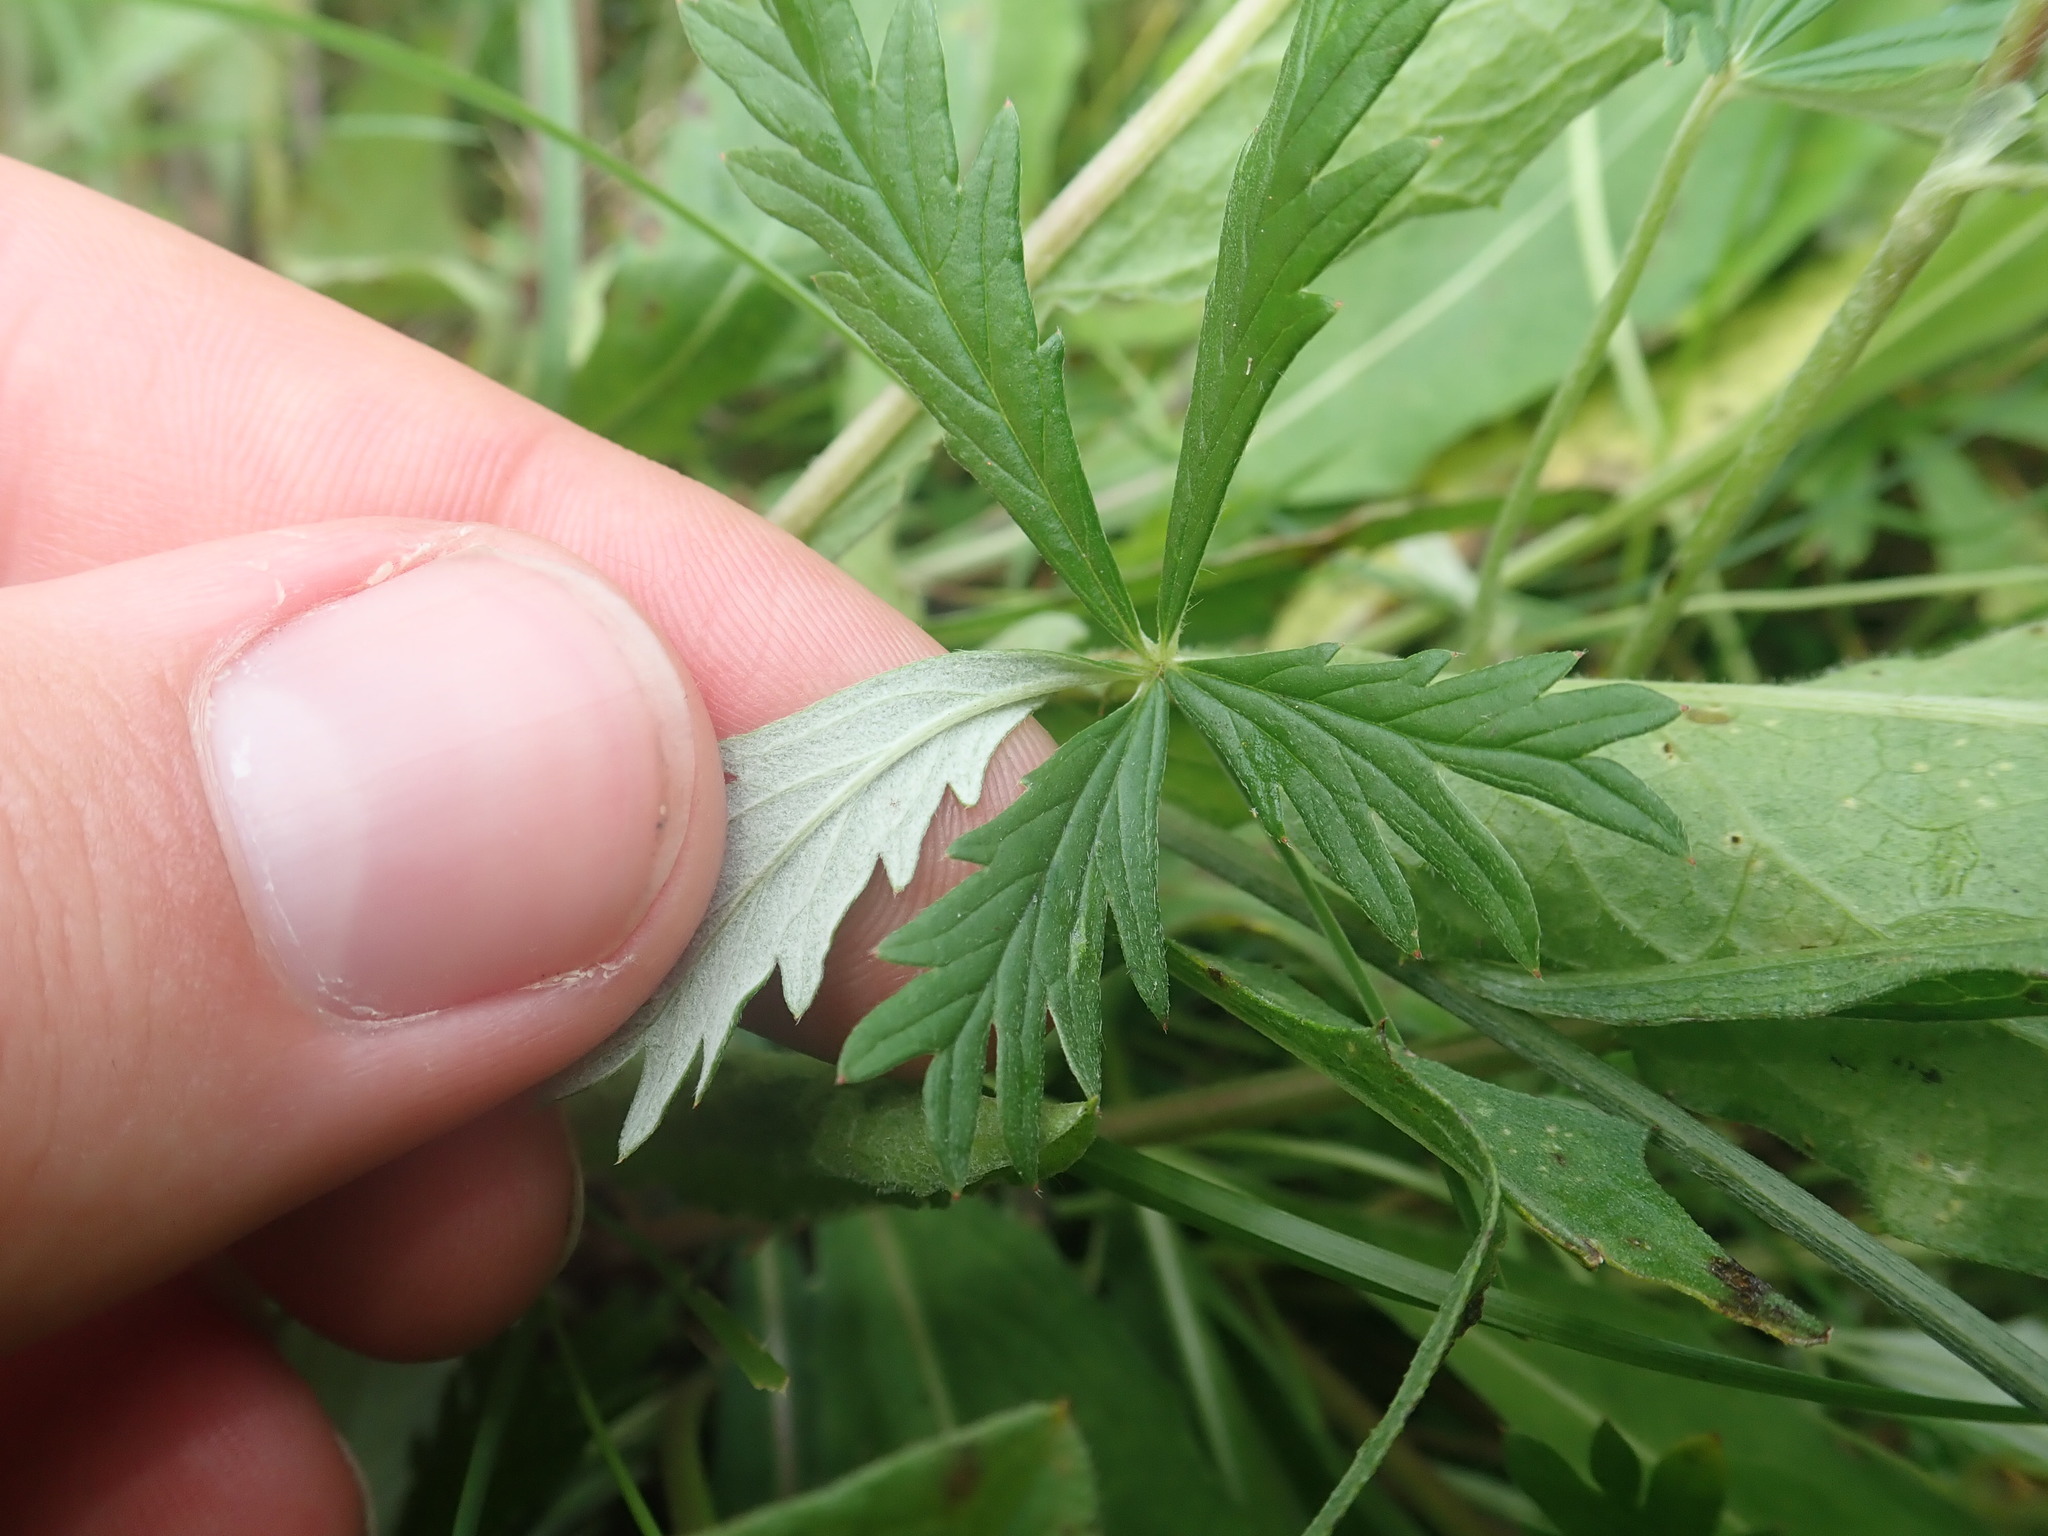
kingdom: Plantae
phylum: Tracheophyta
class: Magnoliopsida
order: Rosales
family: Rosaceae
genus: Potentilla
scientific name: Potentilla argentea
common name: Hoary cinquefoil
